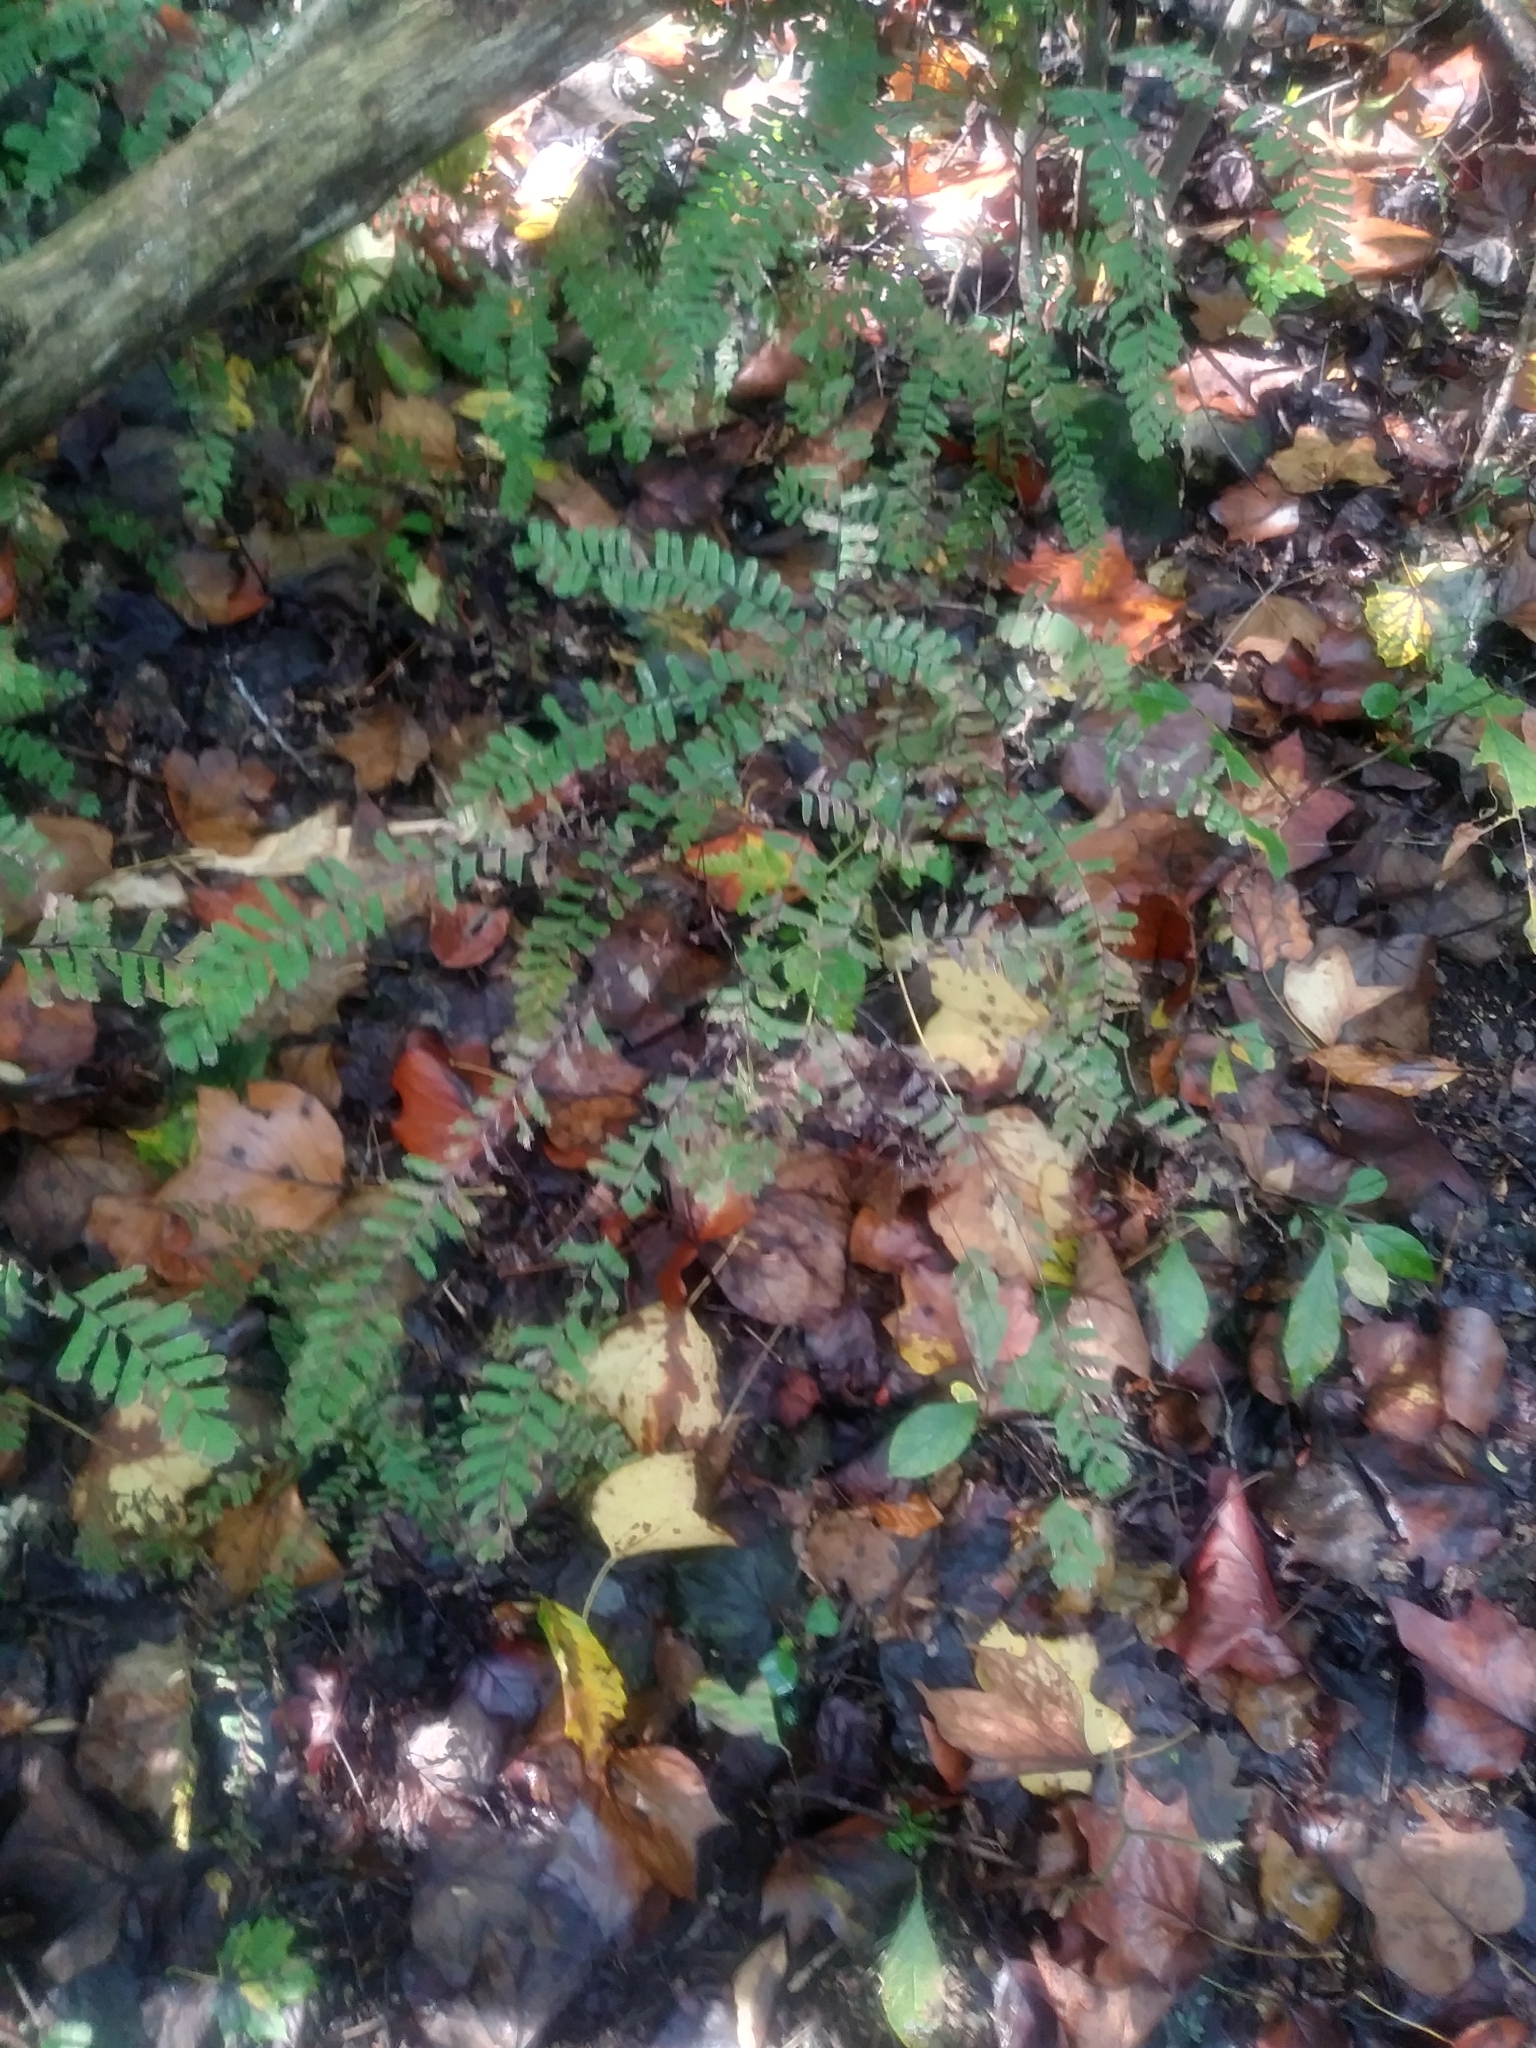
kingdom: Plantae
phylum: Tracheophyta
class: Polypodiopsida
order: Polypodiales
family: Pteridaceae
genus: Adiantum
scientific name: Adiantum pedatum
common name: Five-finger fern
